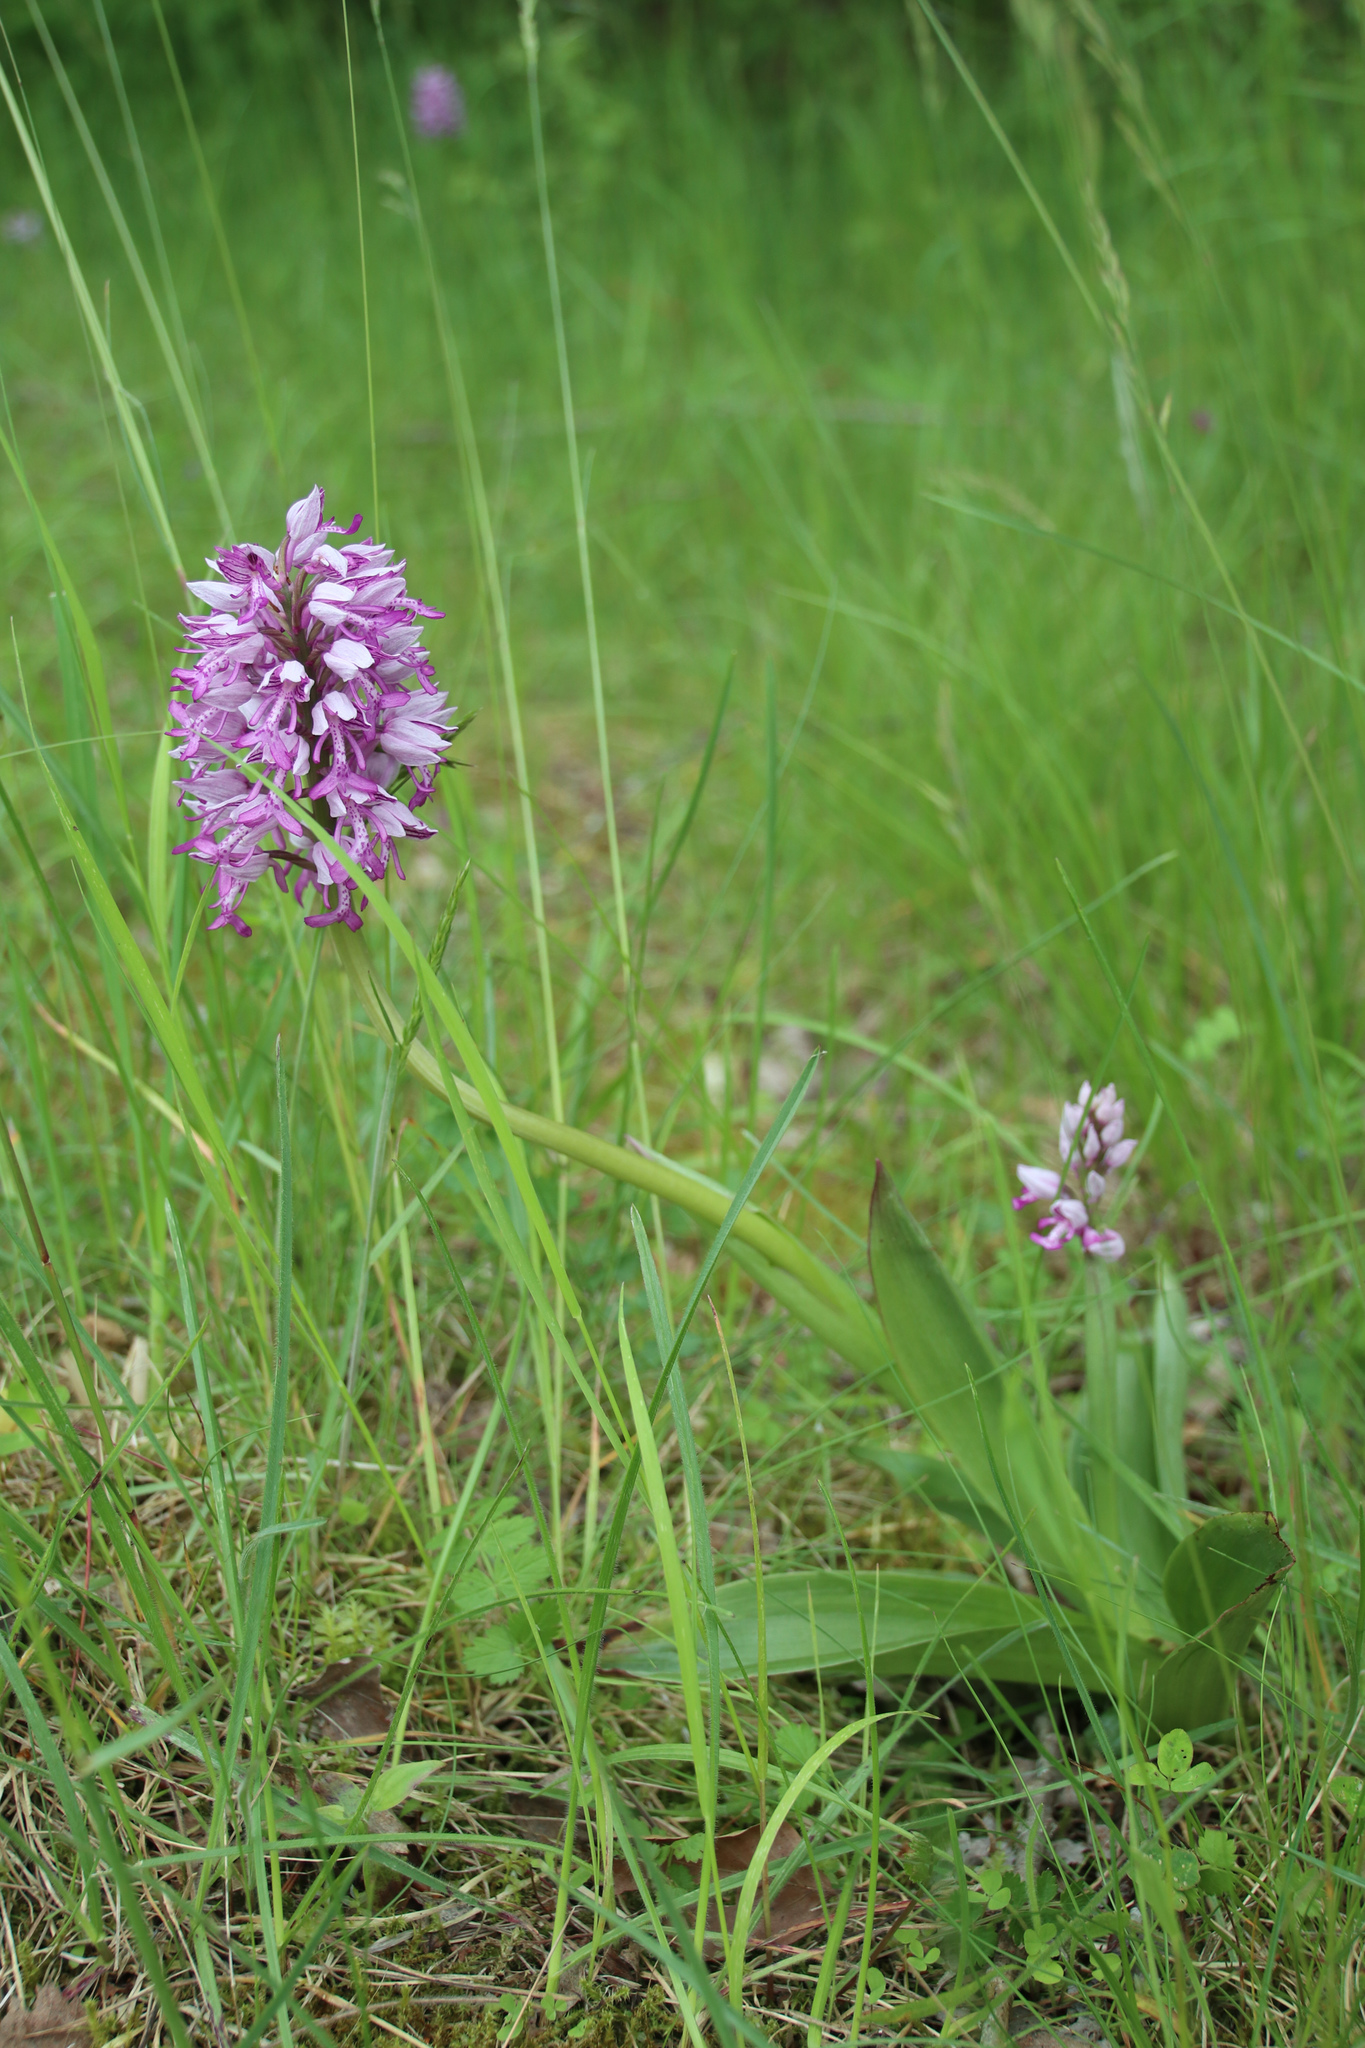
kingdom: Plantae
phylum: Tracheophyta
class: Liliopsida
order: Asparagales
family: Orchidaceae
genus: Orchis
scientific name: Orchis militaris
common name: Military orchid
